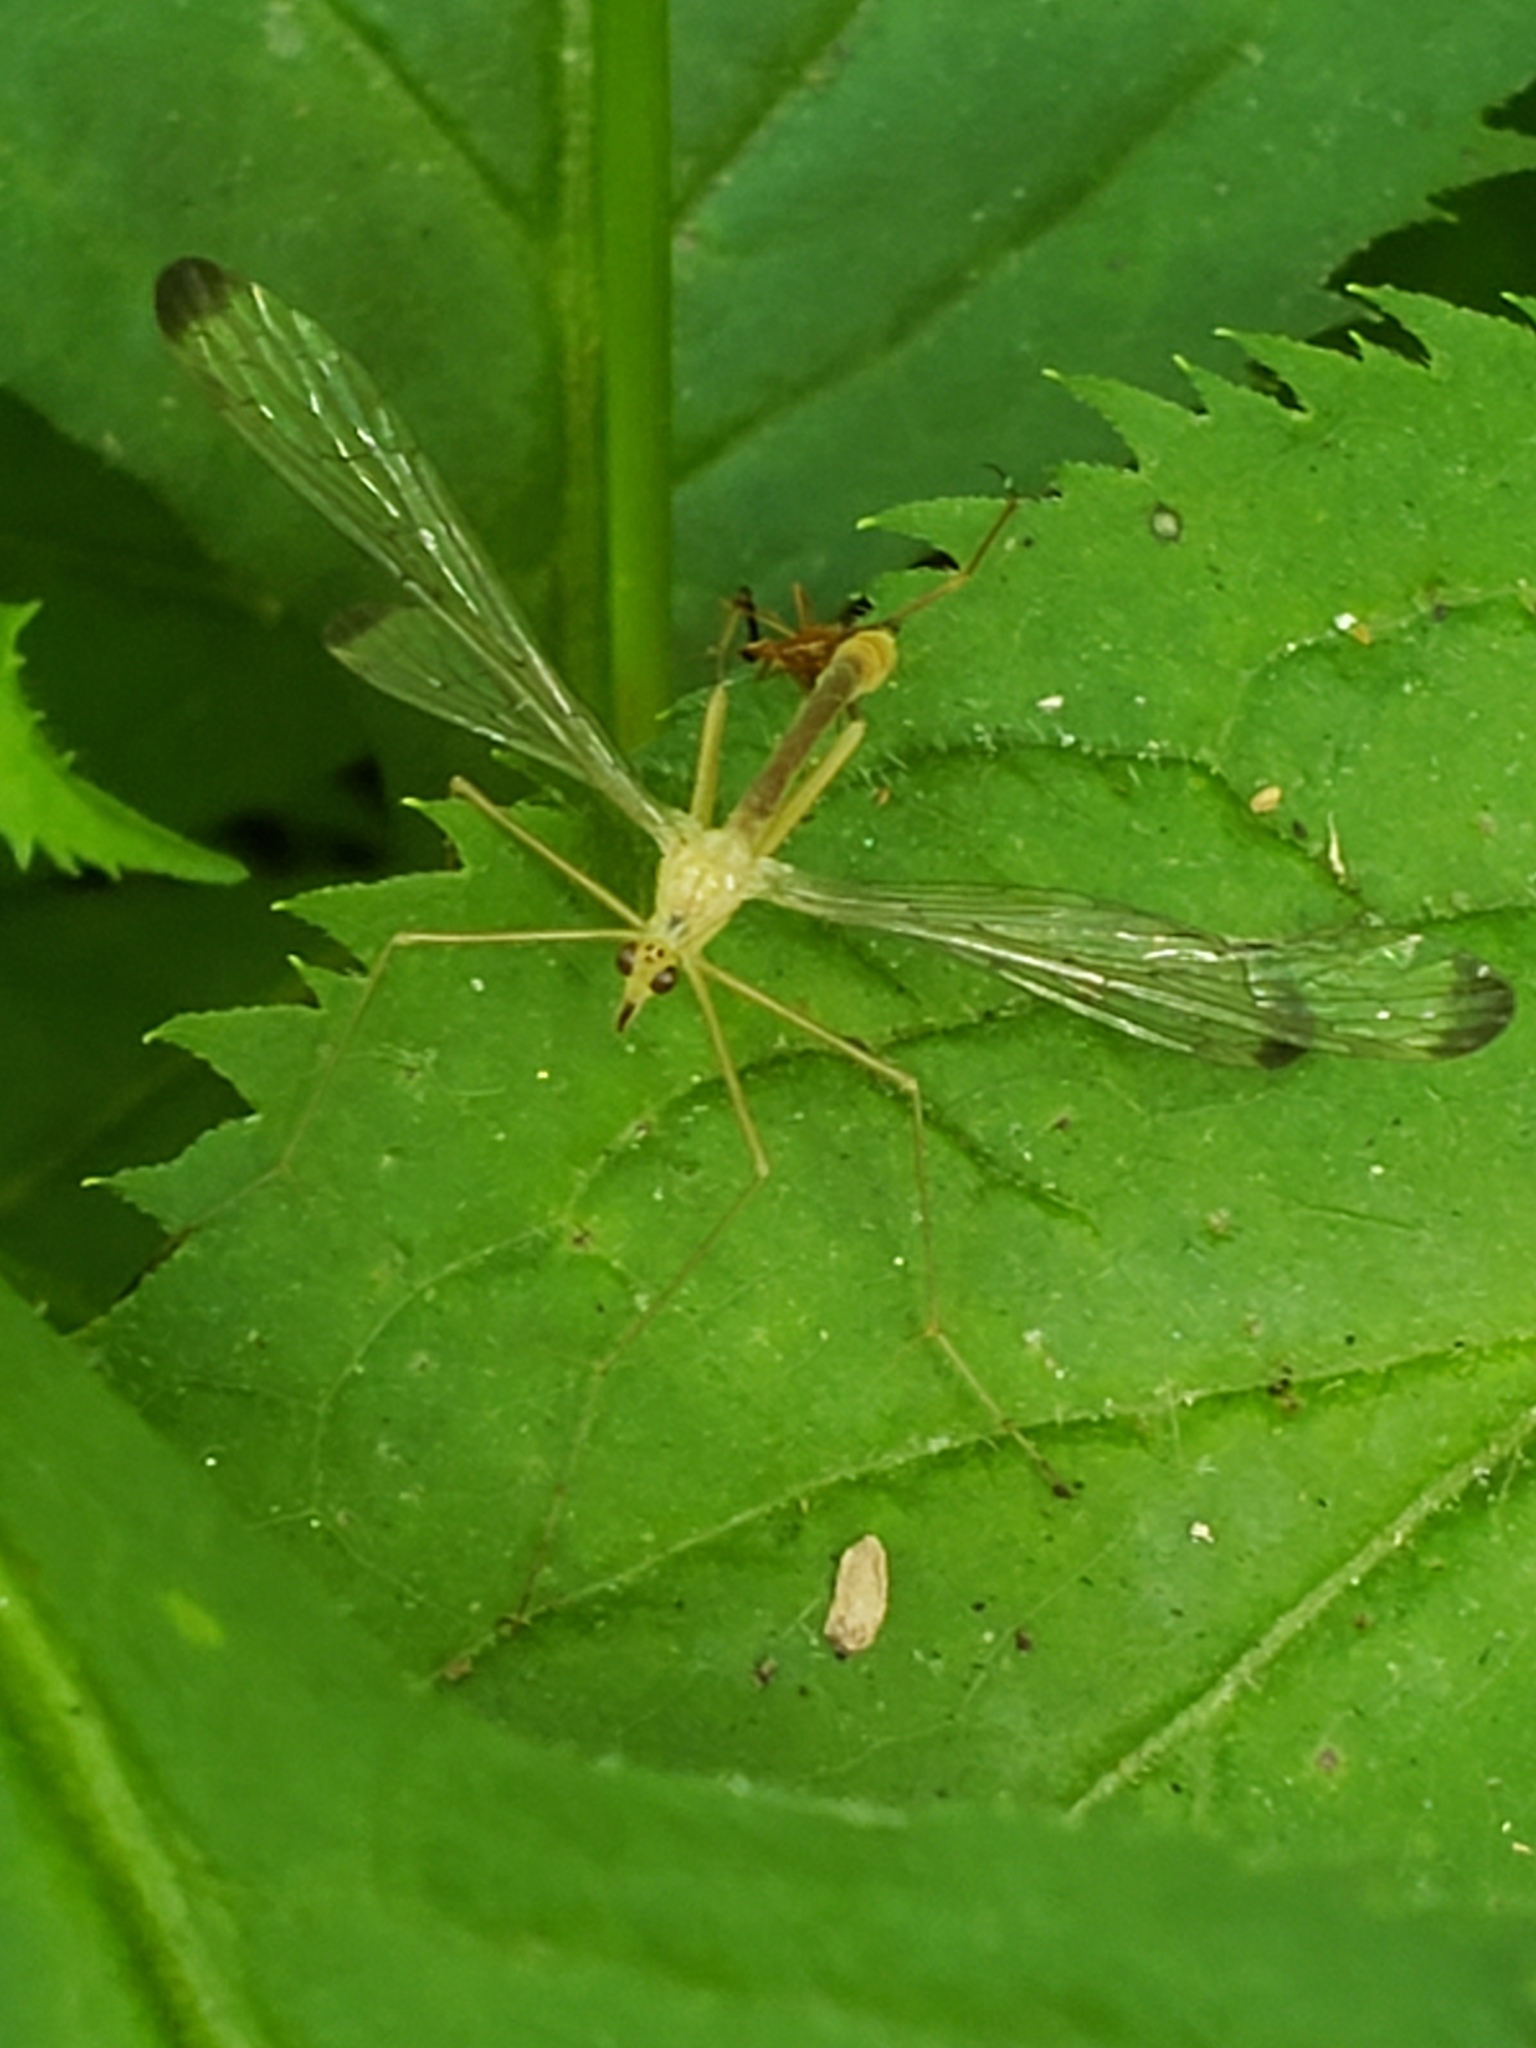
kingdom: Animalia
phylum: Arthropoda
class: Insecta
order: Mecoptera
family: Bittacidae
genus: Hylobittacus
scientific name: Hylobittacus apicalis
